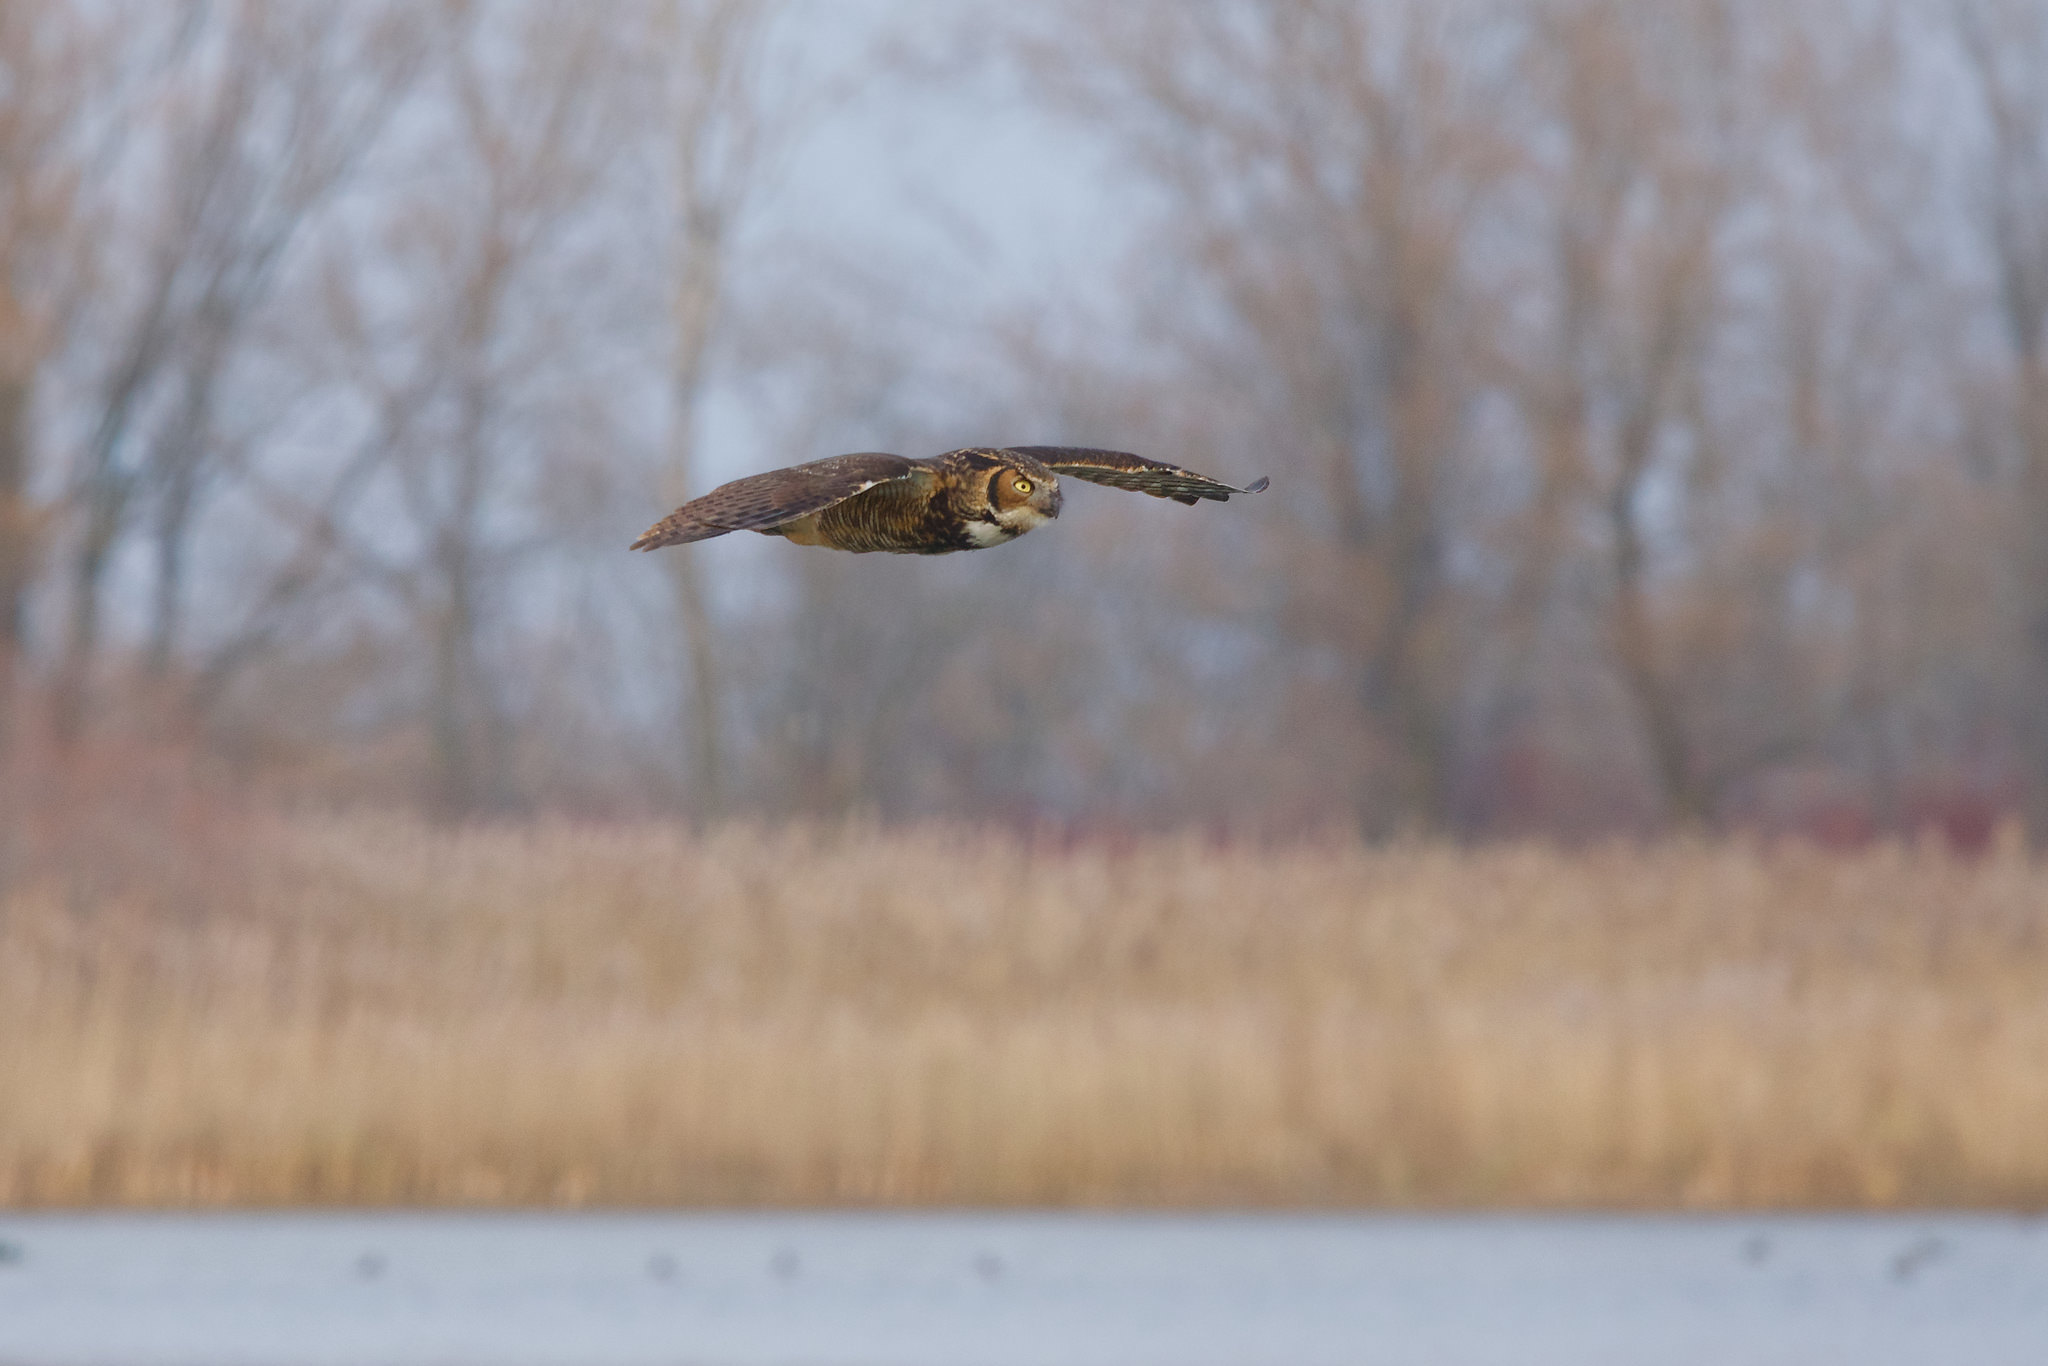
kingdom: Animalia
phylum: Chordata
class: Aves
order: Strigiformes
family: Strigidae
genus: Bubo
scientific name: Bubo virginianus
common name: Great horned owl
